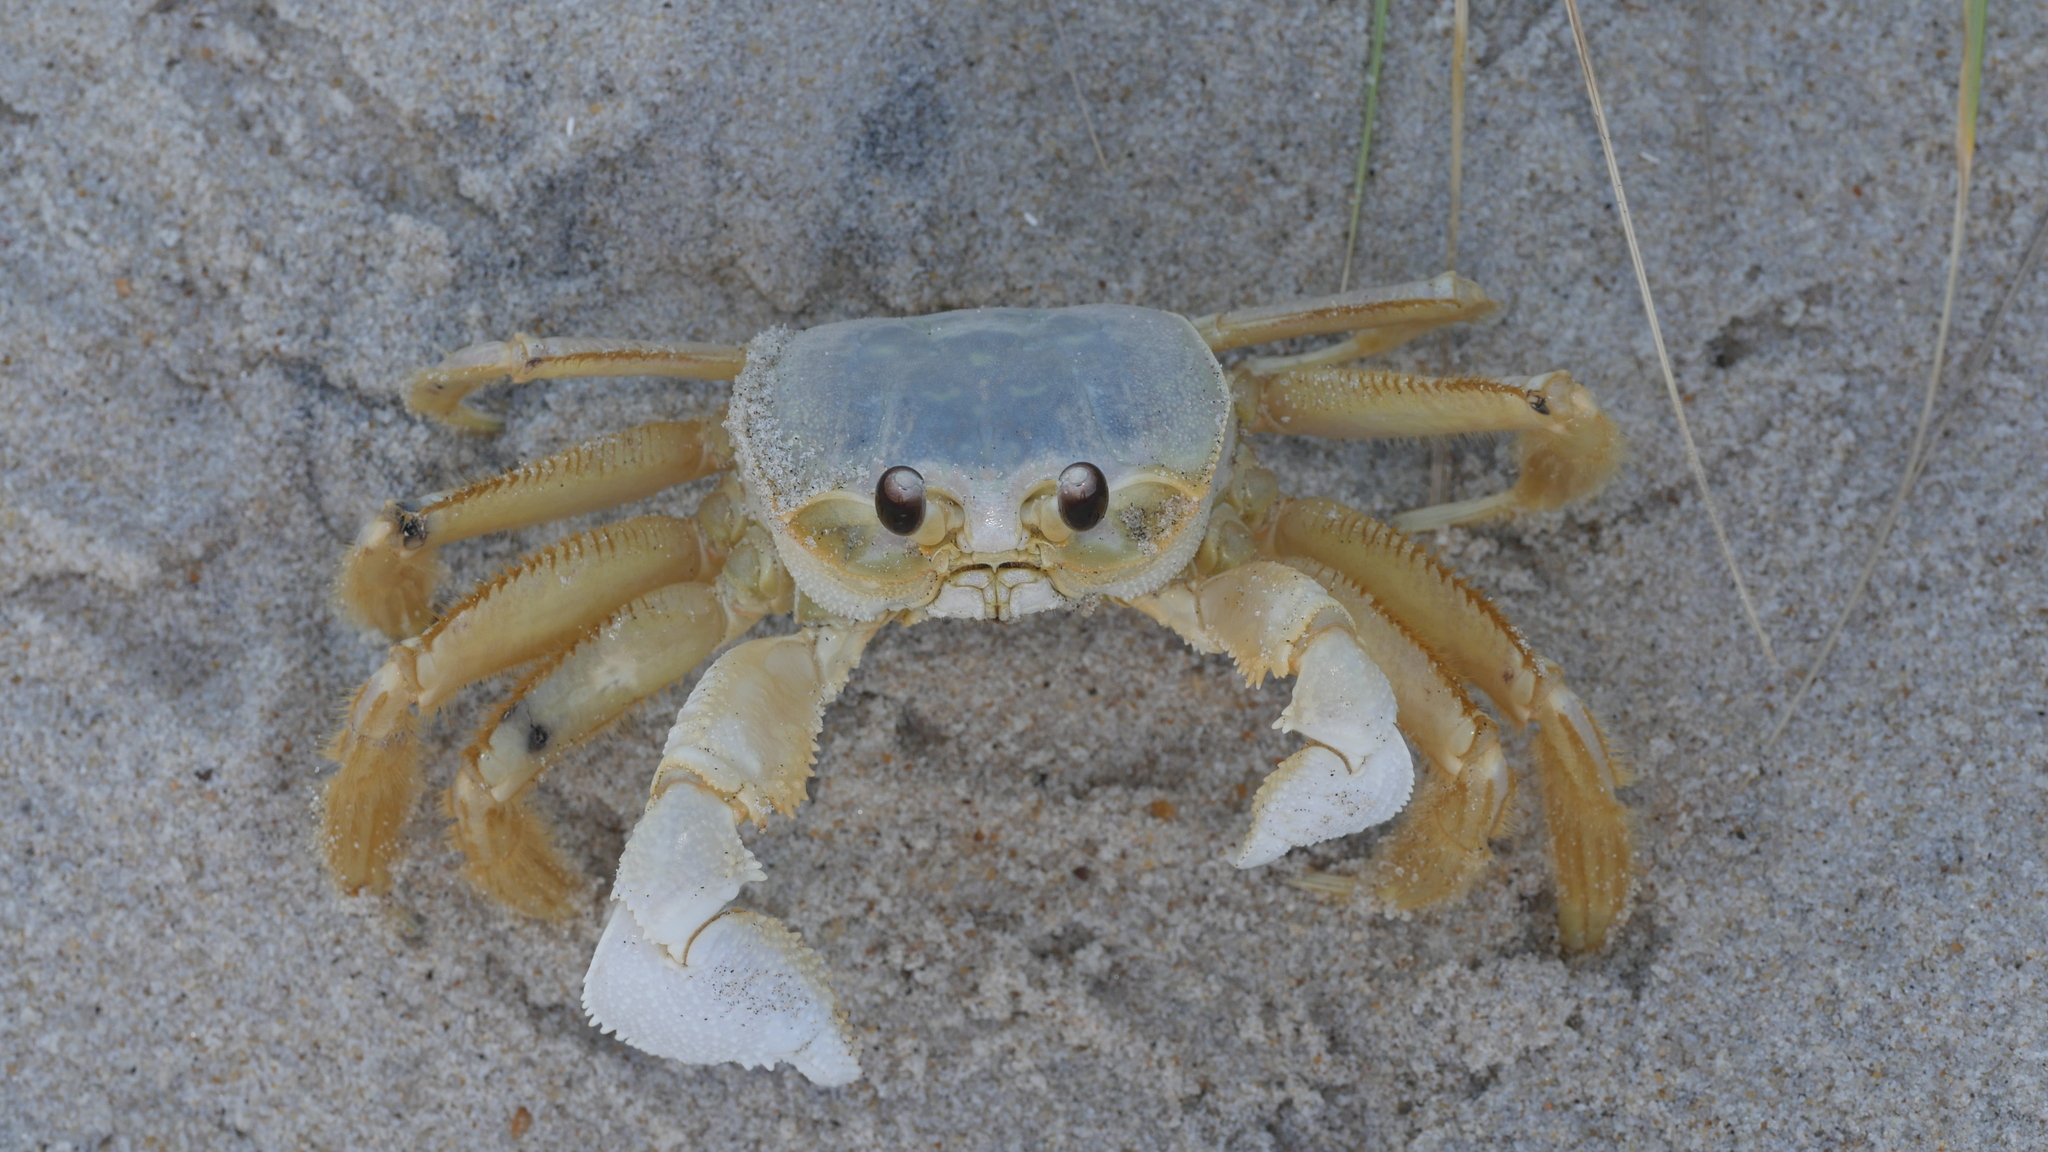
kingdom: Animalia
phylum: Arthropoda
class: Malacostraca
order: Decapoda
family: Ocypodidae
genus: Ocypode
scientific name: Ocypode quadrata
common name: Ghost crab
